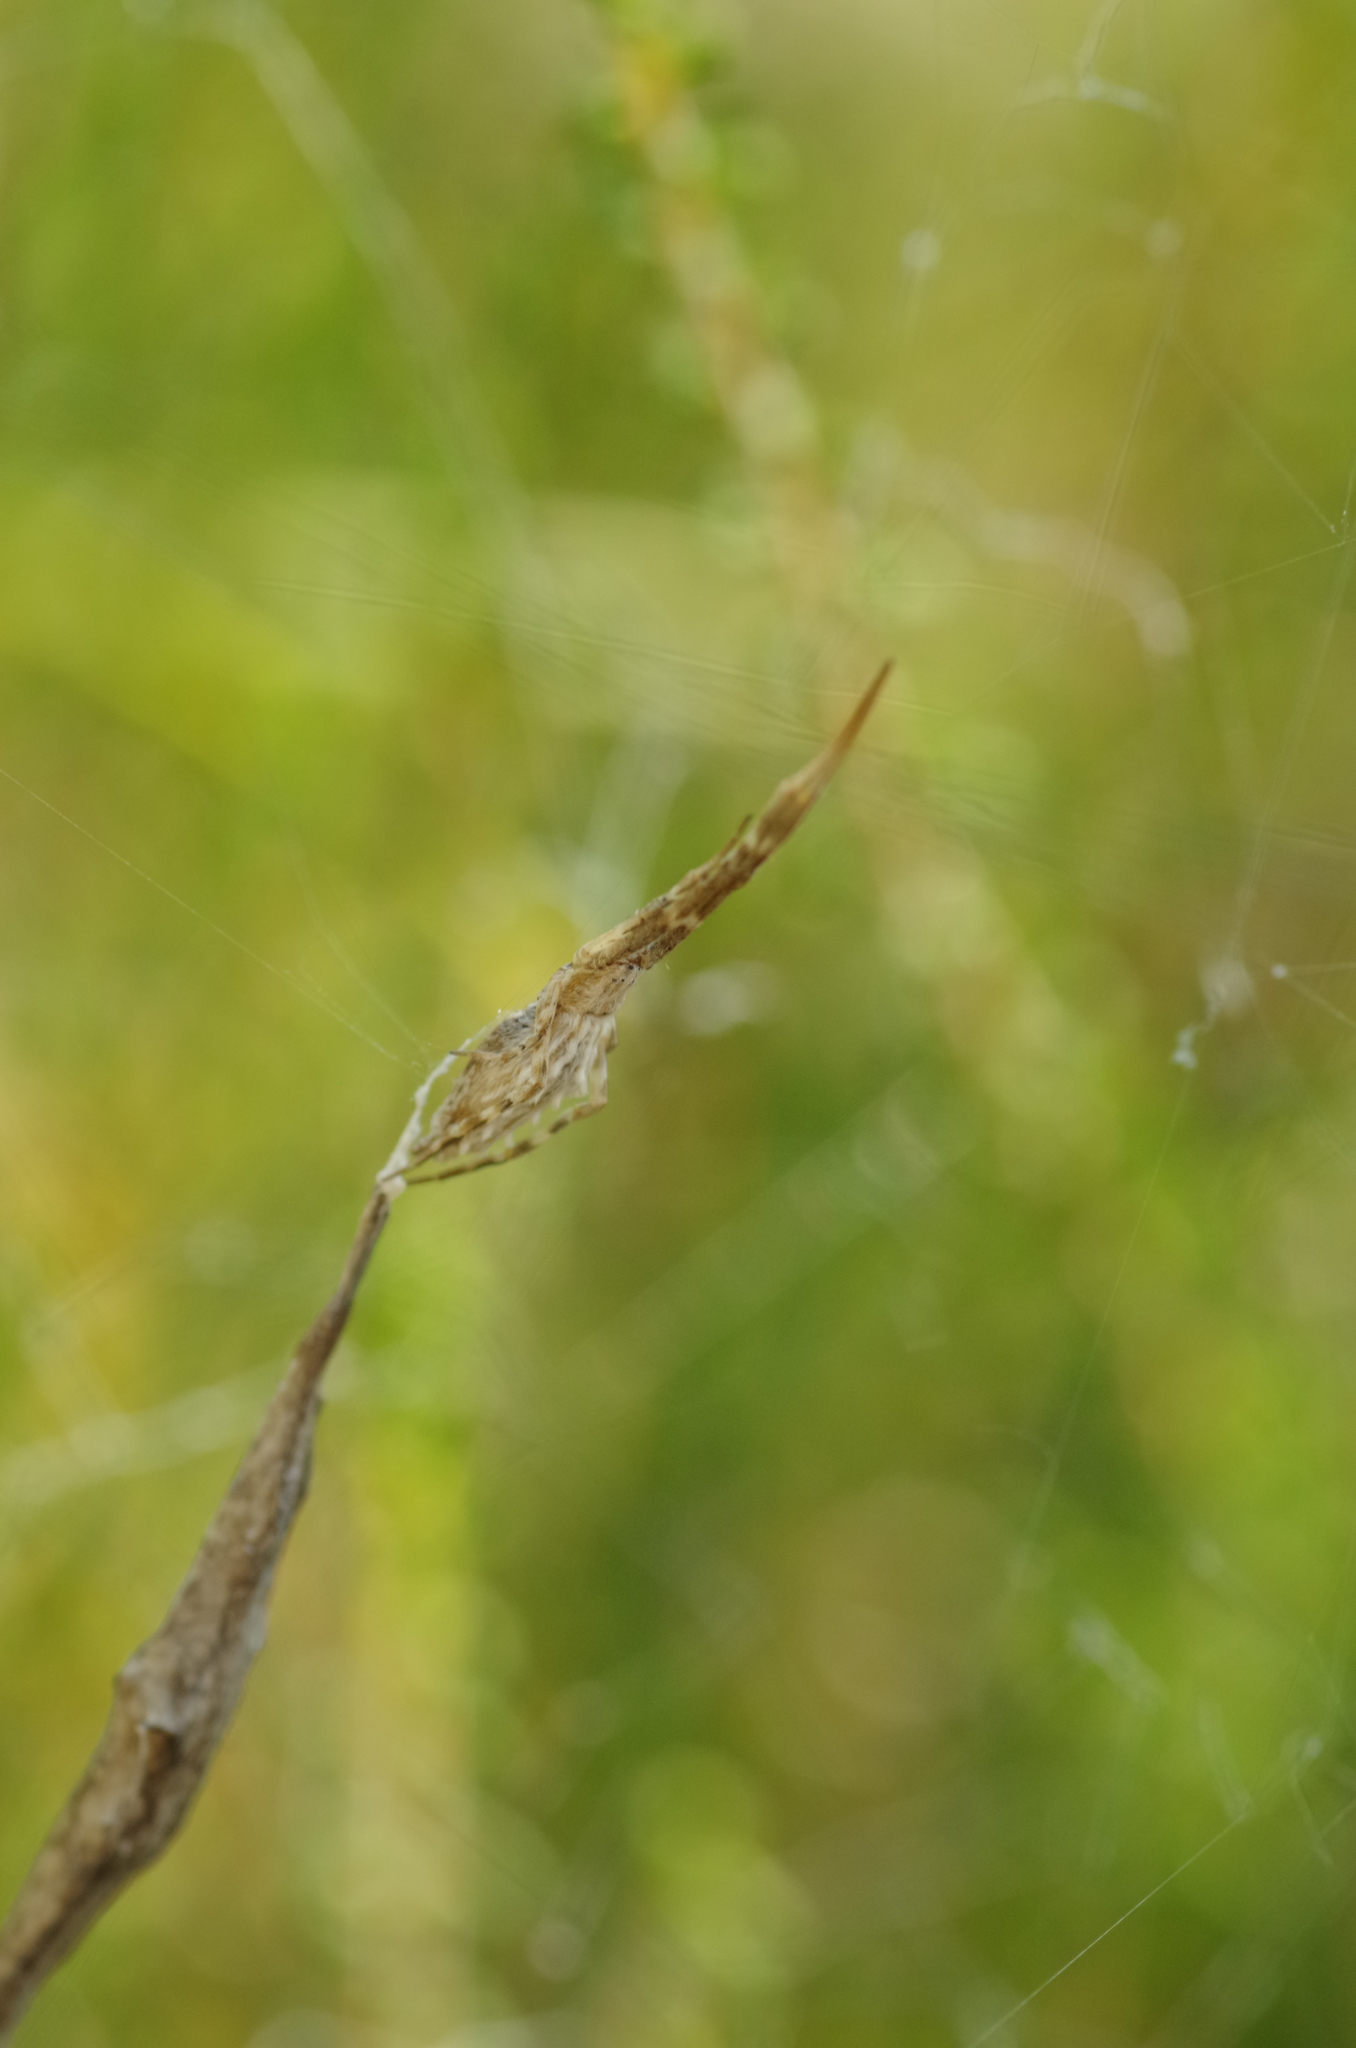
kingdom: Animalia
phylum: Arthropoda
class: Arachnida
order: Araneae
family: Uloboridae
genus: Uloborus
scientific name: Uloborus walckenaerius
